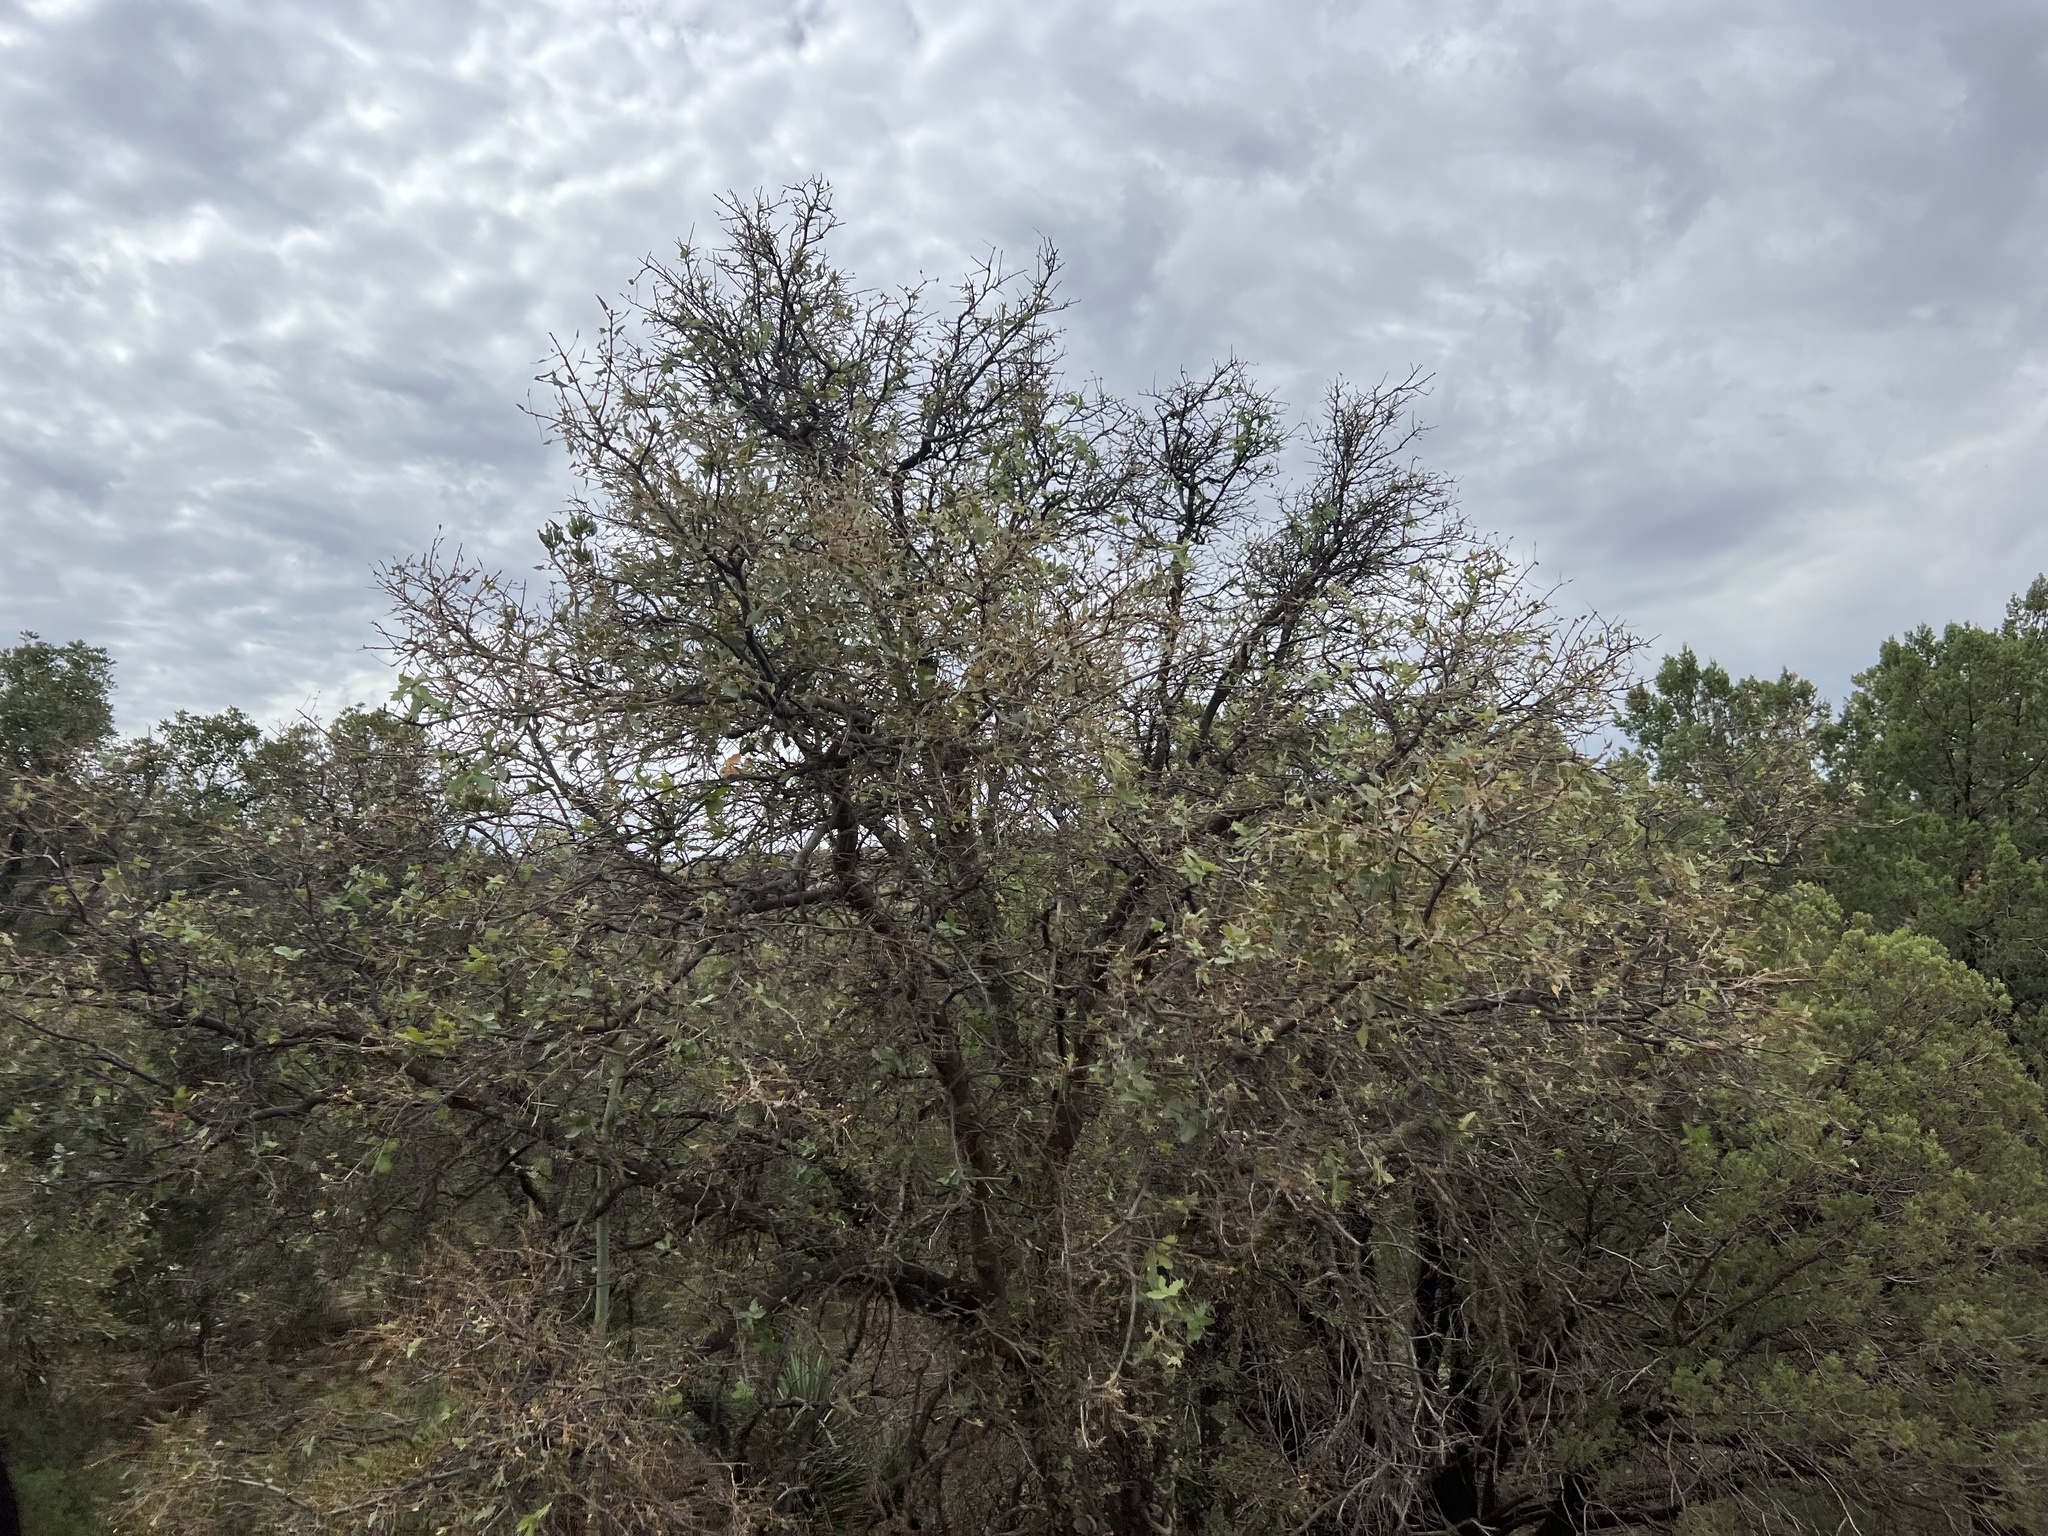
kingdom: Plantae
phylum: Tracheophyta
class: Magnoliopsida
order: Fagales
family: Fagaceae
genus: Quercus
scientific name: Quercus emoryi
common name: Emory oak
